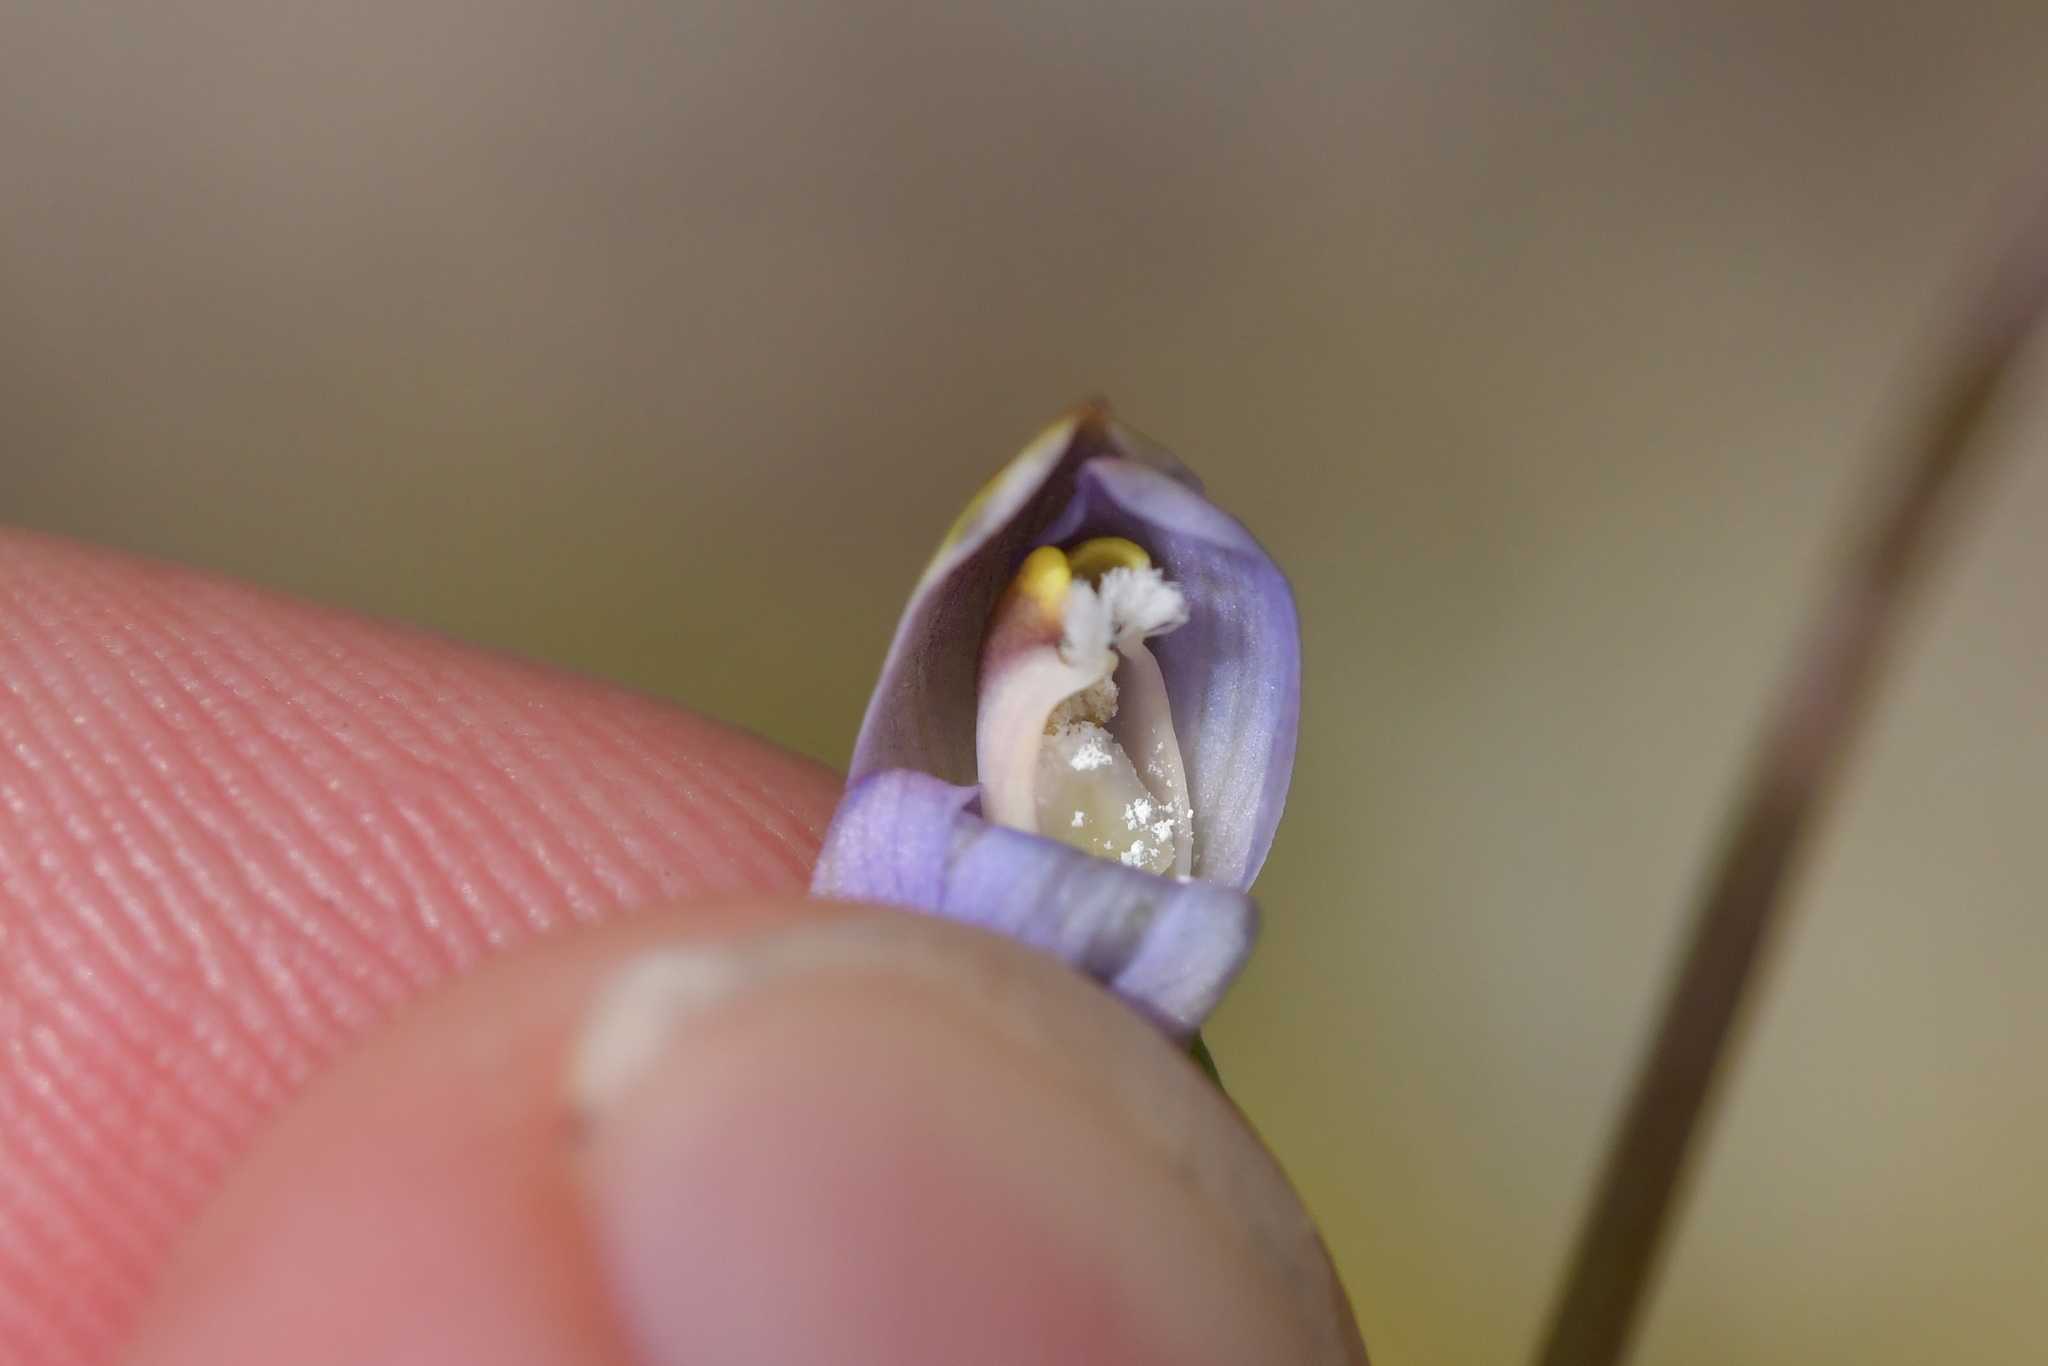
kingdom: Plantae
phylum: Tracheophyta
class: Liliopsida
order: Asparagales
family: Orchidaceae
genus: Thelymitra
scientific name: Thelymitra colensoi
